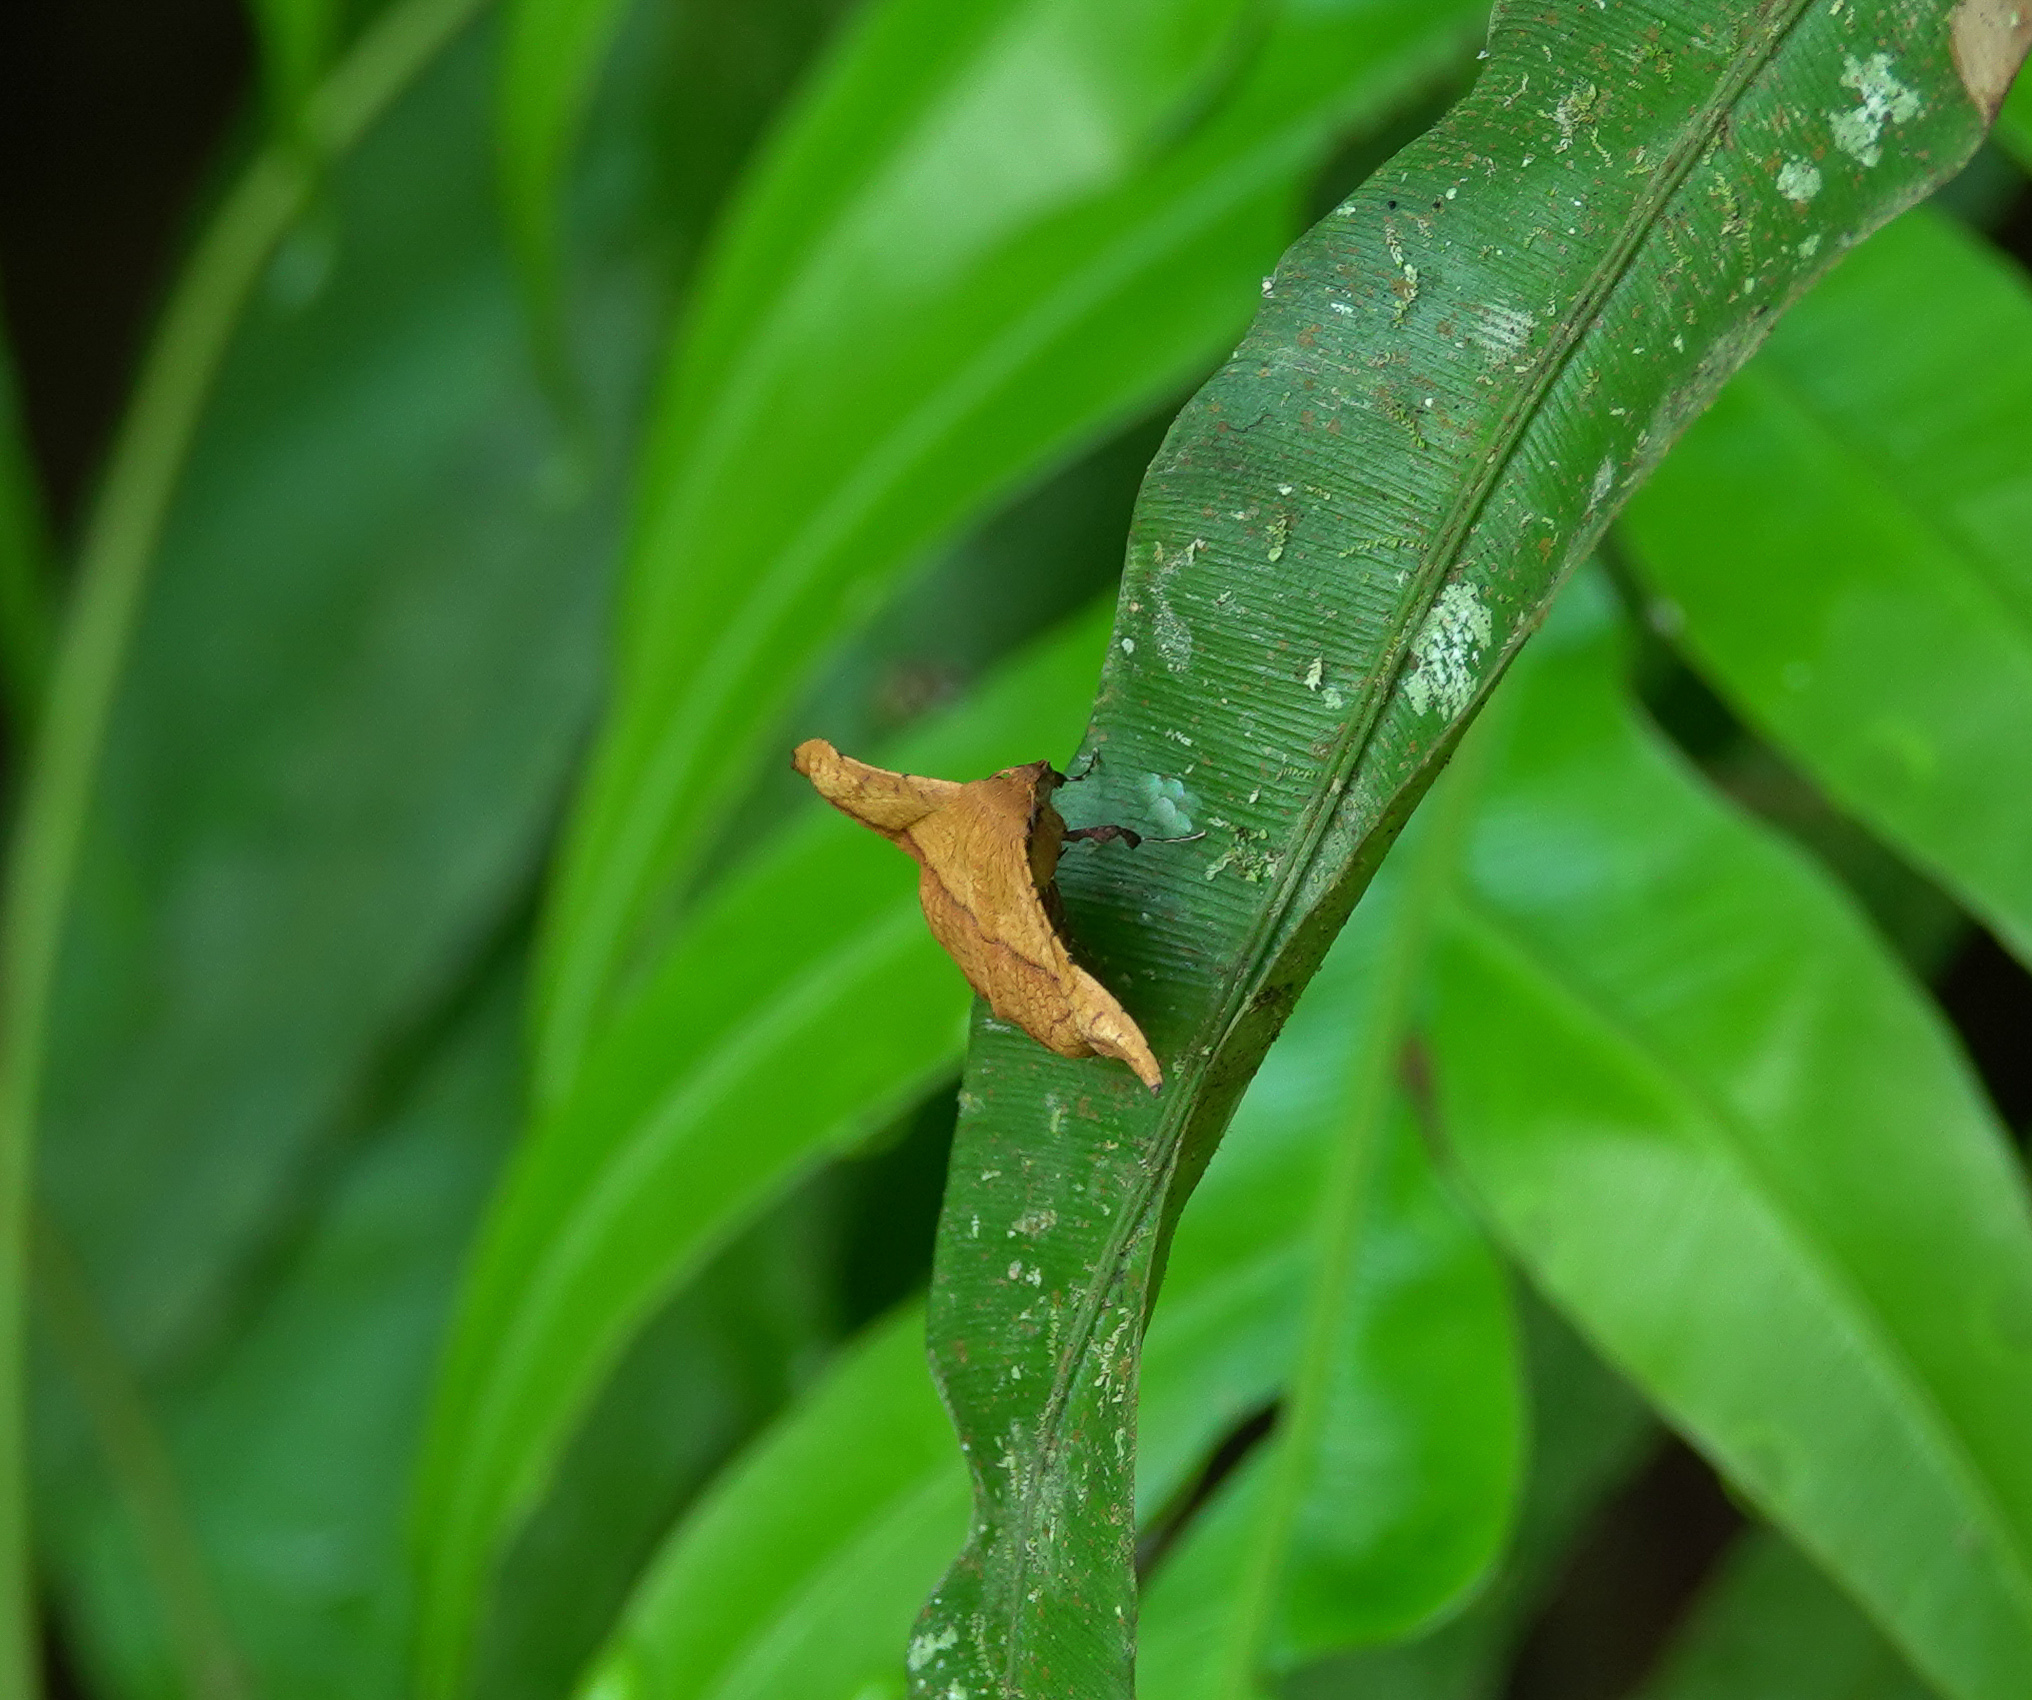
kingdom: Animalia
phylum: Arthropoda
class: Insecta
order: Lepidoptera
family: Thyrididae
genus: Striglina
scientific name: Striglina scitaria
